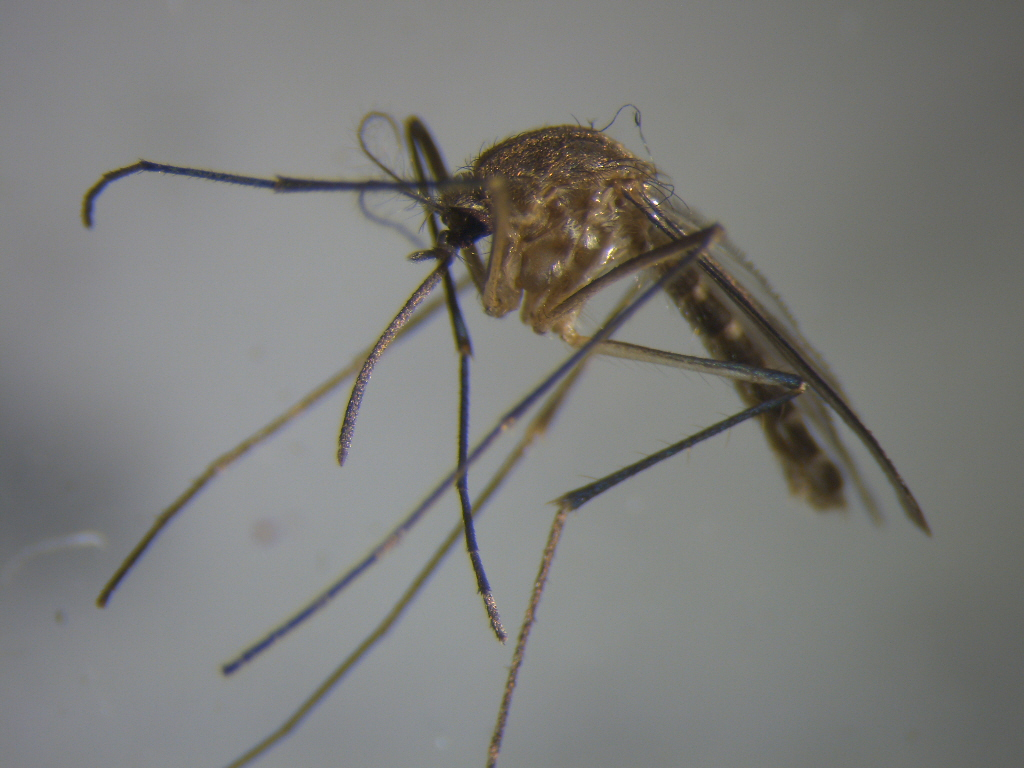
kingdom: Animalia
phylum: Arthropoda
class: Insecta
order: Diptera
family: Culicidae
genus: Culex
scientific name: Culex pervigilans
